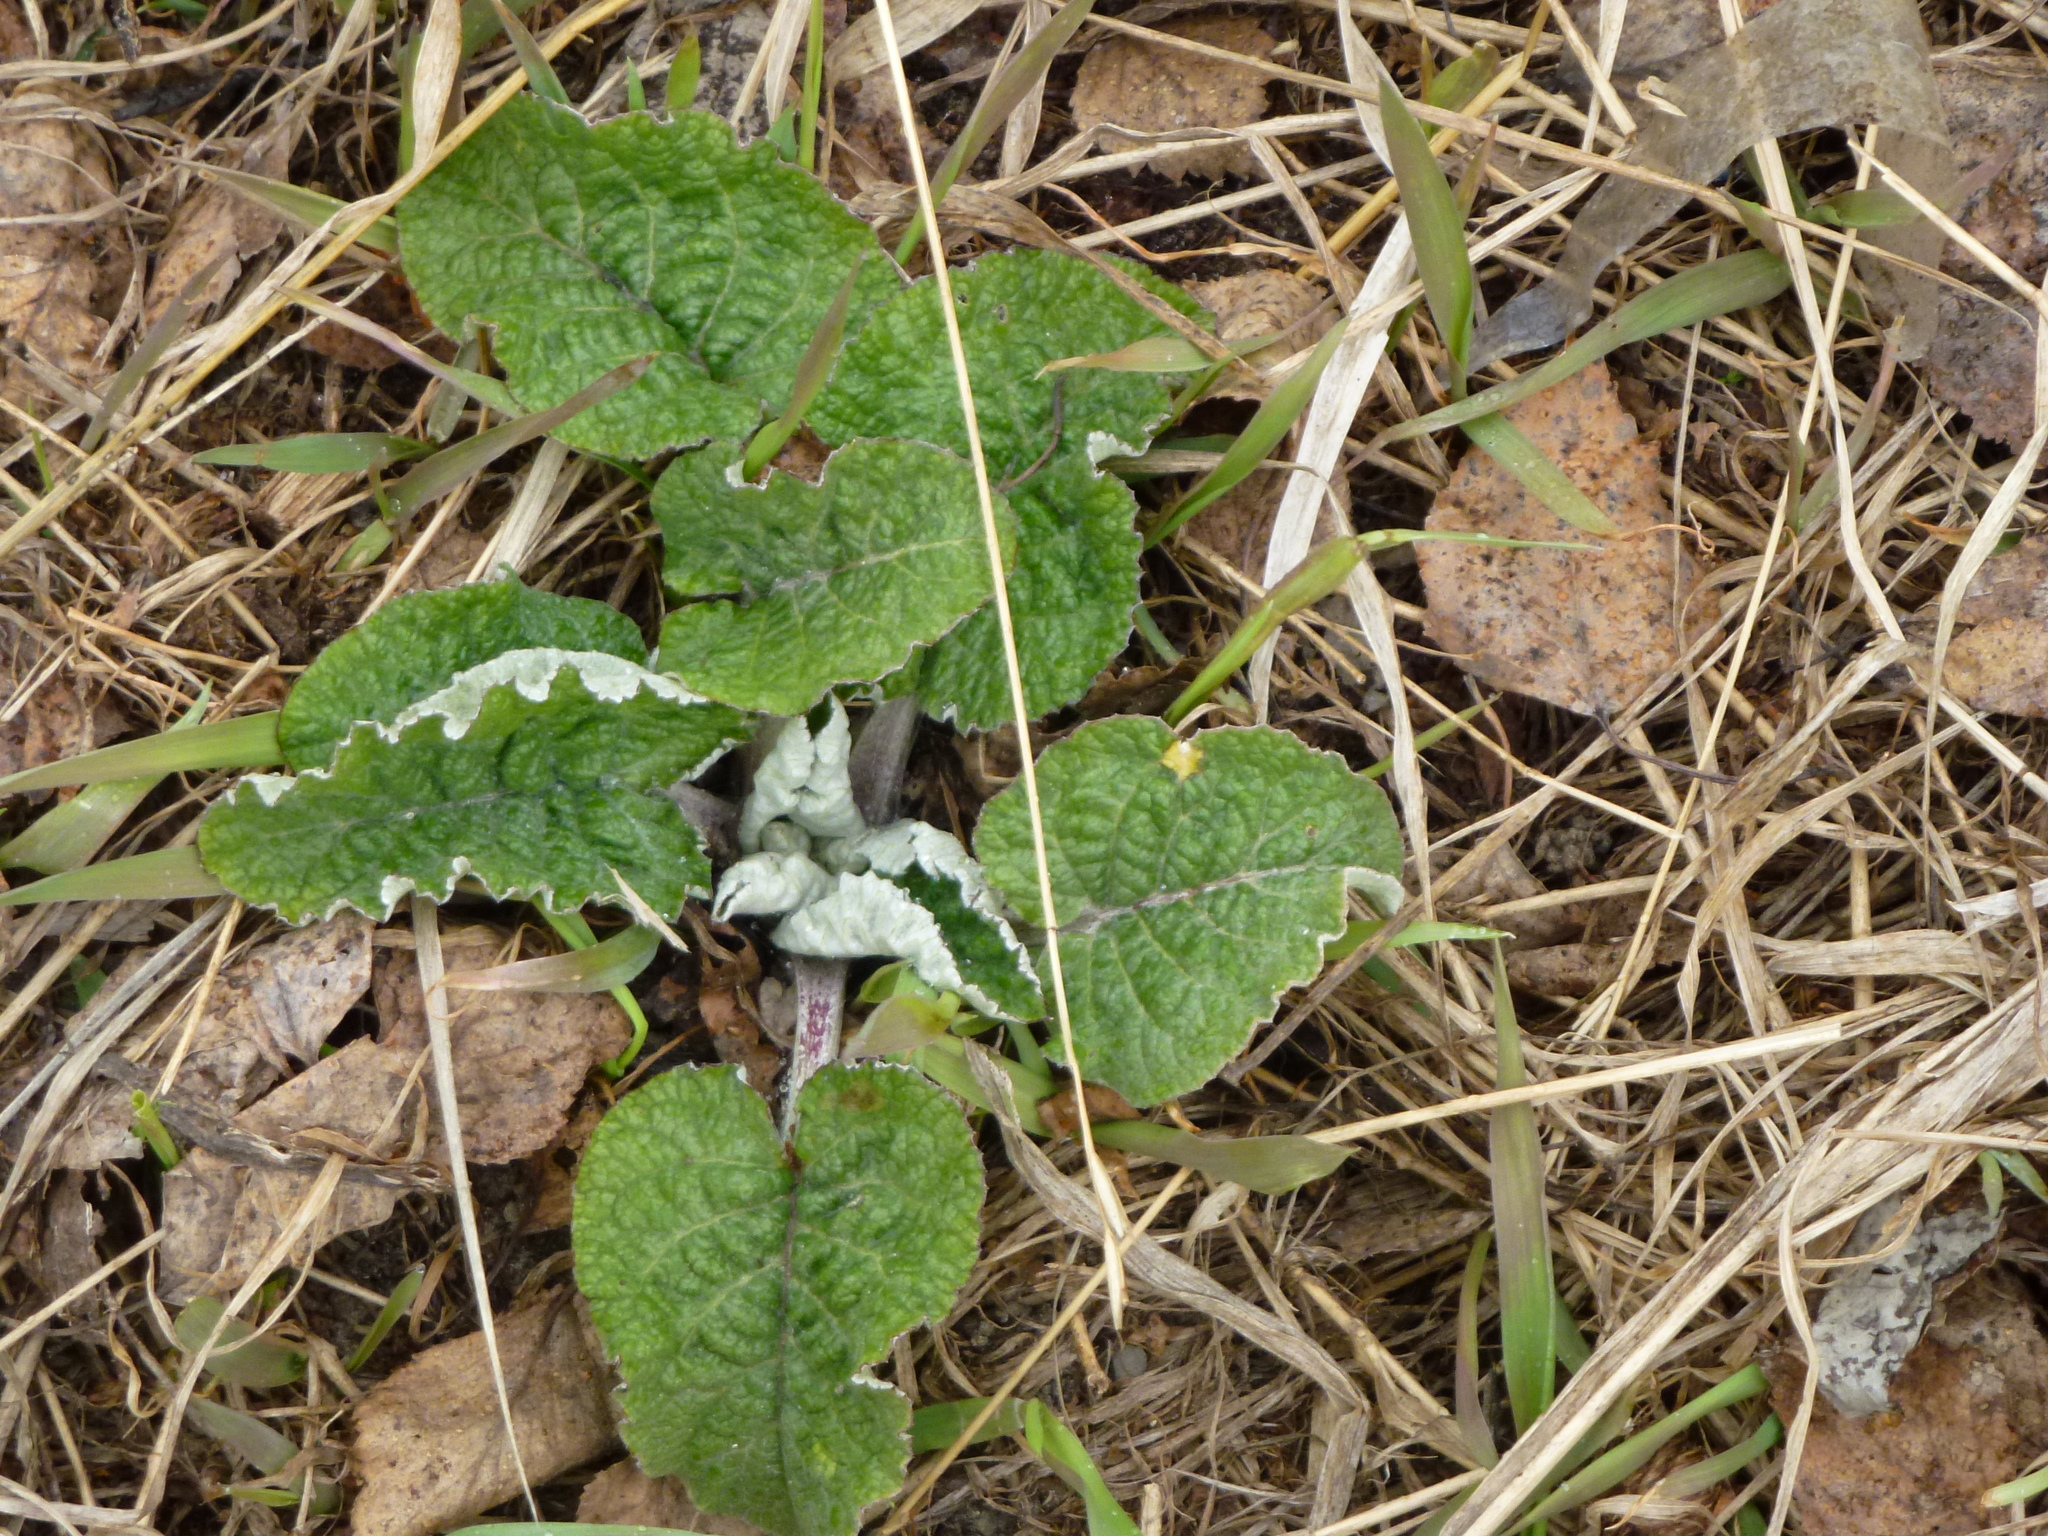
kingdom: Plantae
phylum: Tracheophyta
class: Magnoliopsida
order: Asterales
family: Asteraceae
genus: Arctium
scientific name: Arctium tomentosum
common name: Woolly burdock
